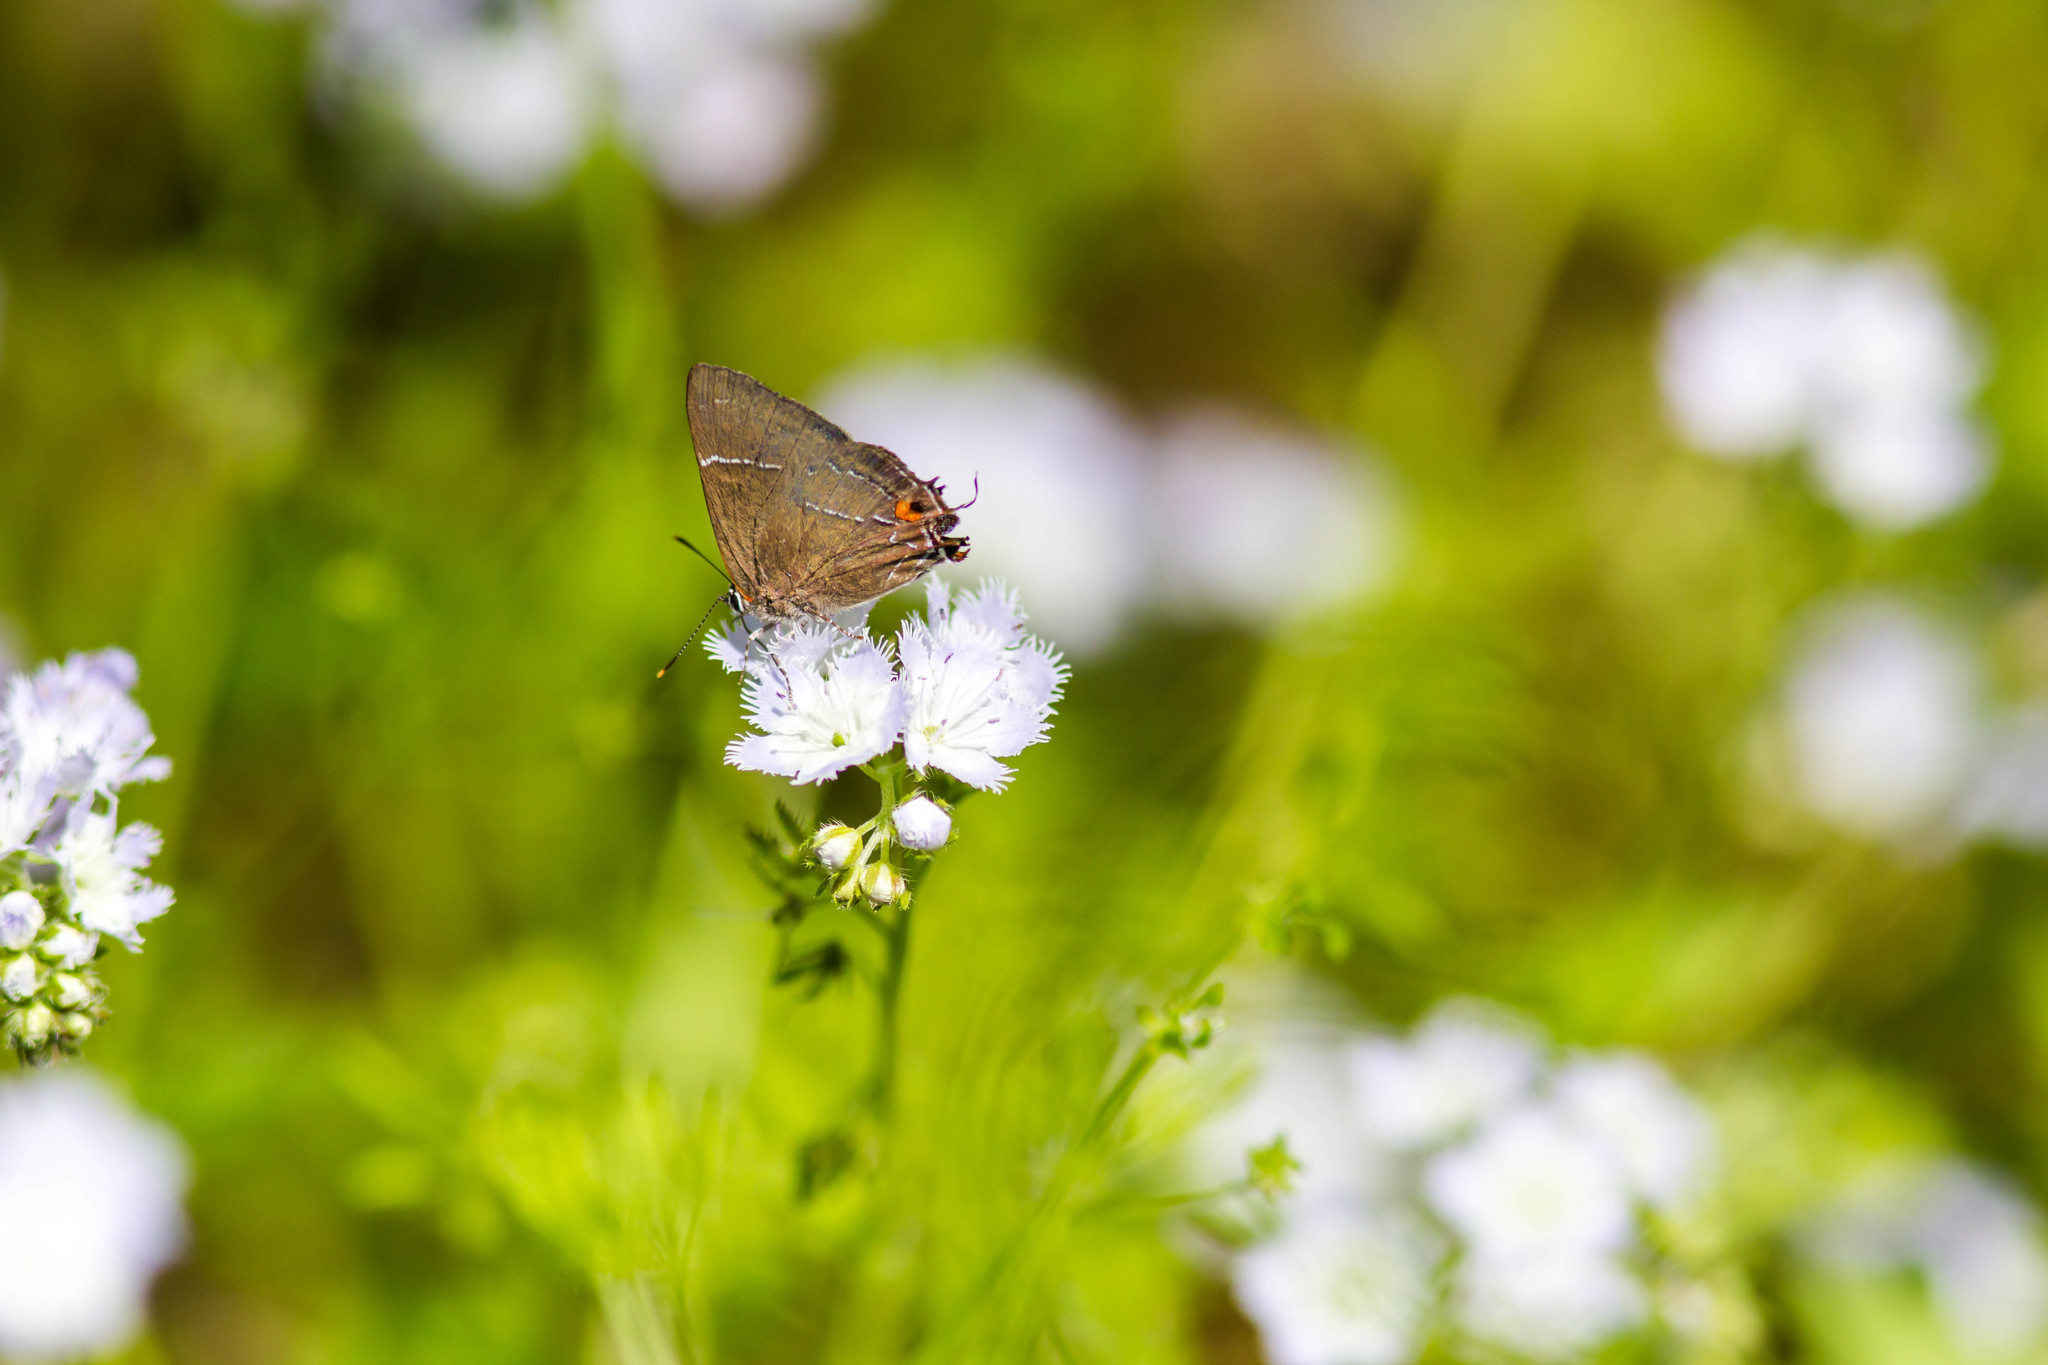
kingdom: Animalia
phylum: Arthropoda
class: Insecta
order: Lepidoptera
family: Lycaenidae
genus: Parrhasius
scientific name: Parrhasius m-album
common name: White m hairstreak
